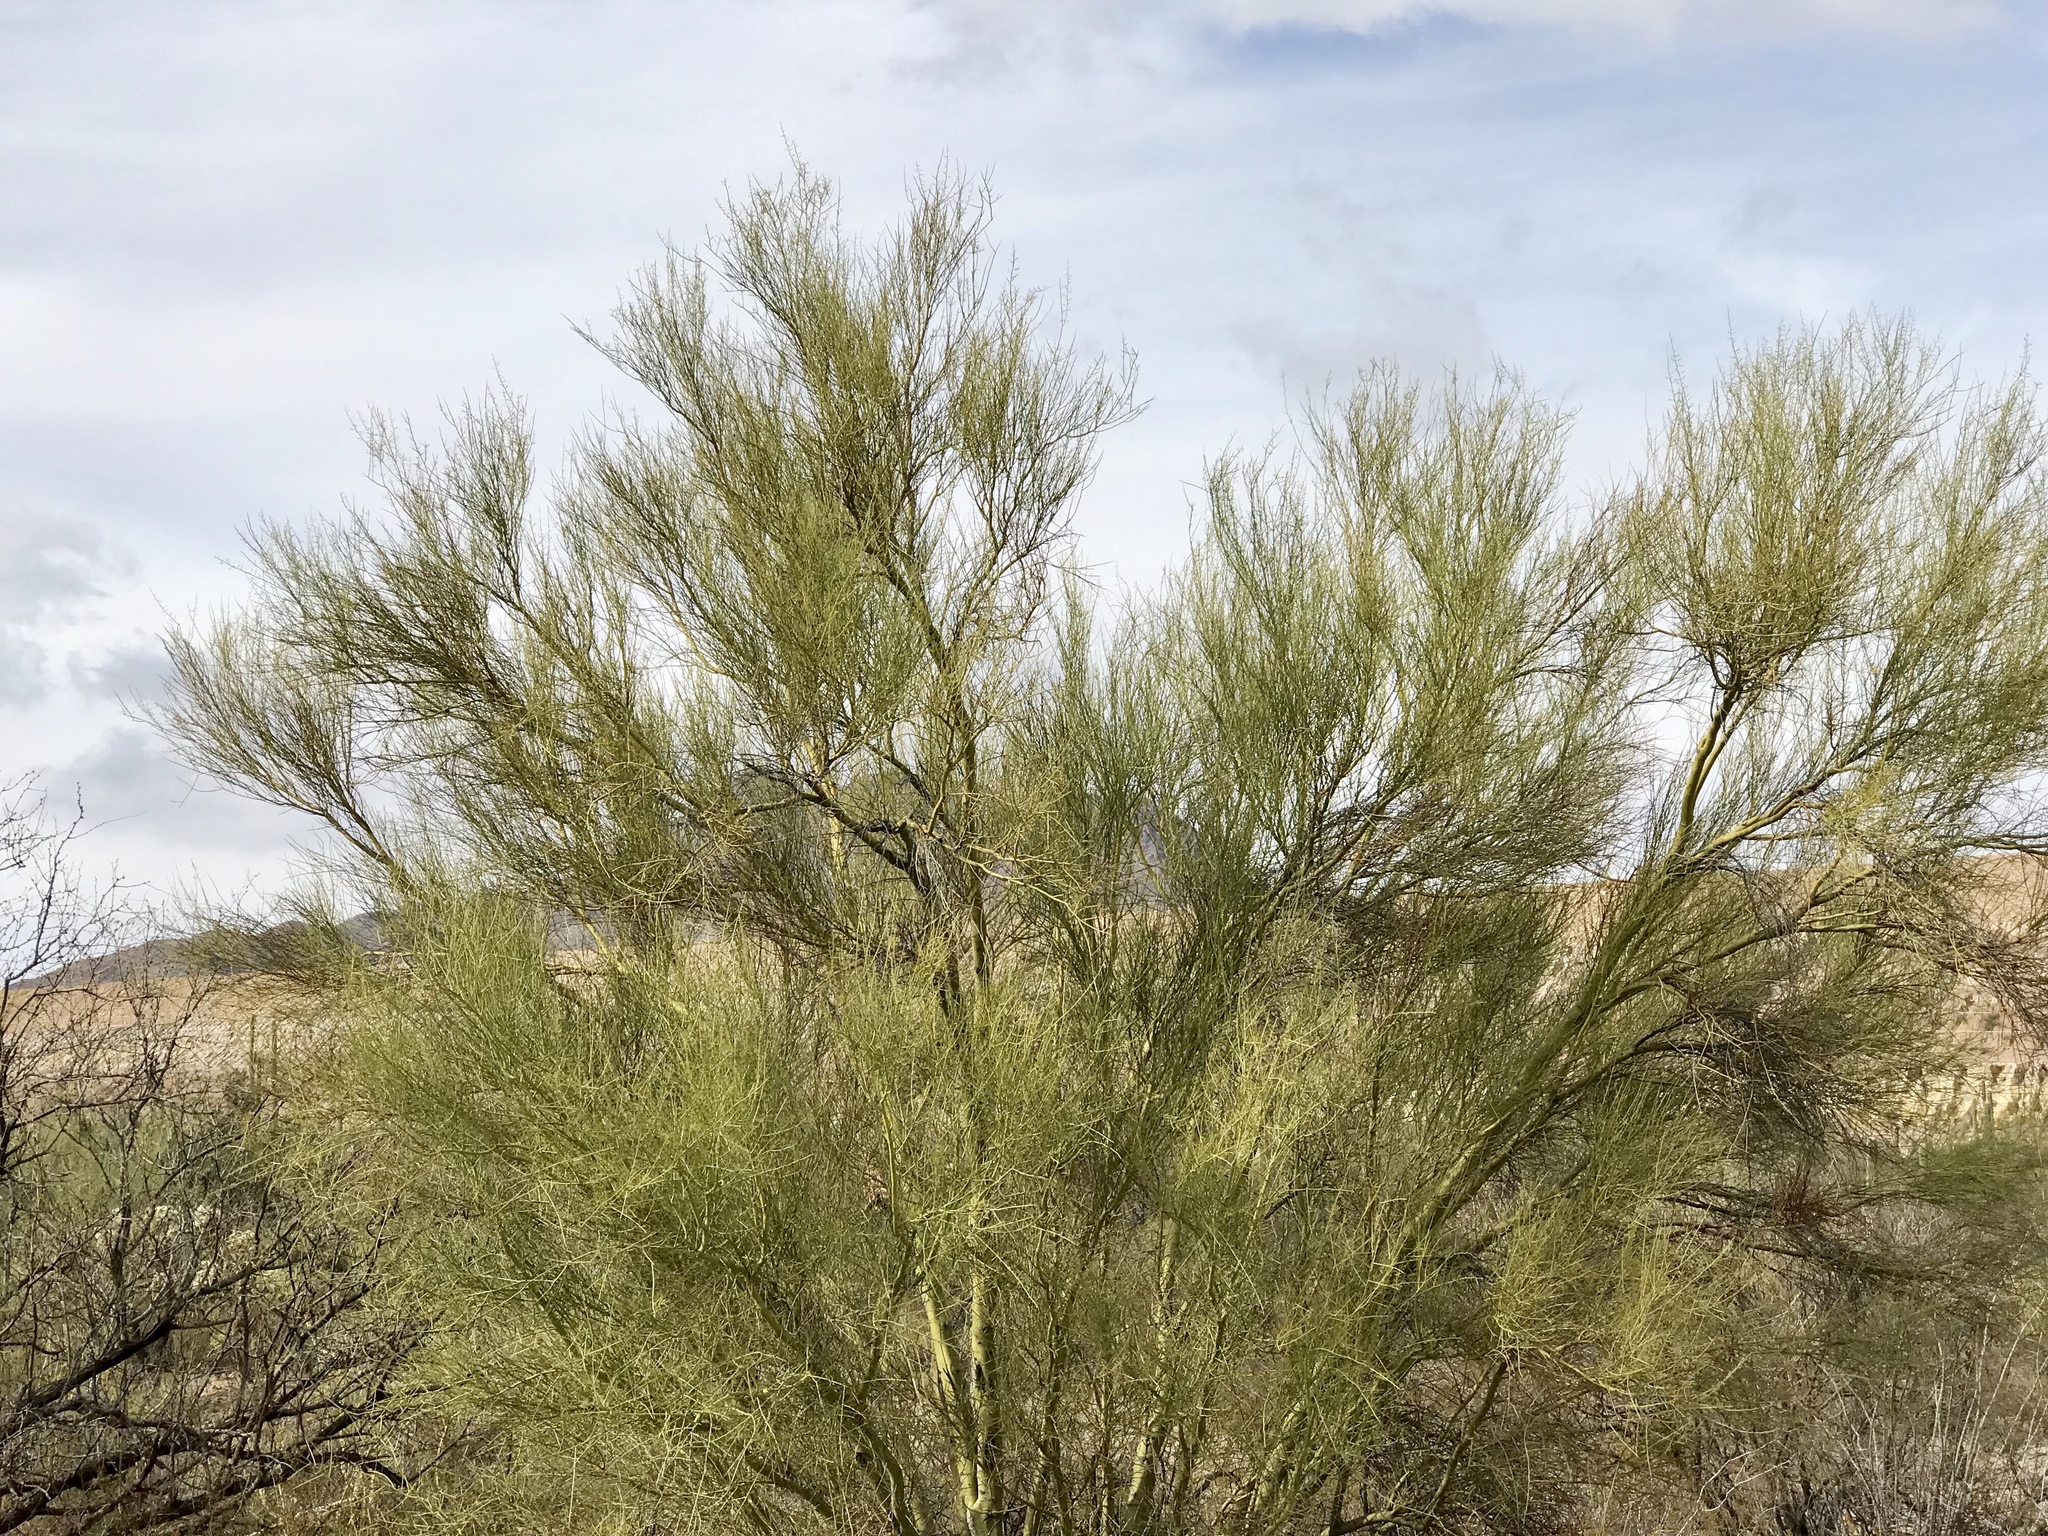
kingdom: Plantae
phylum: Tracheophyta
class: Magnoliopsida
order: Fabales
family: Fabaceae
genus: Parkinsonia
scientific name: Parkinsonia microphylla
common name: Yellow paloverde
